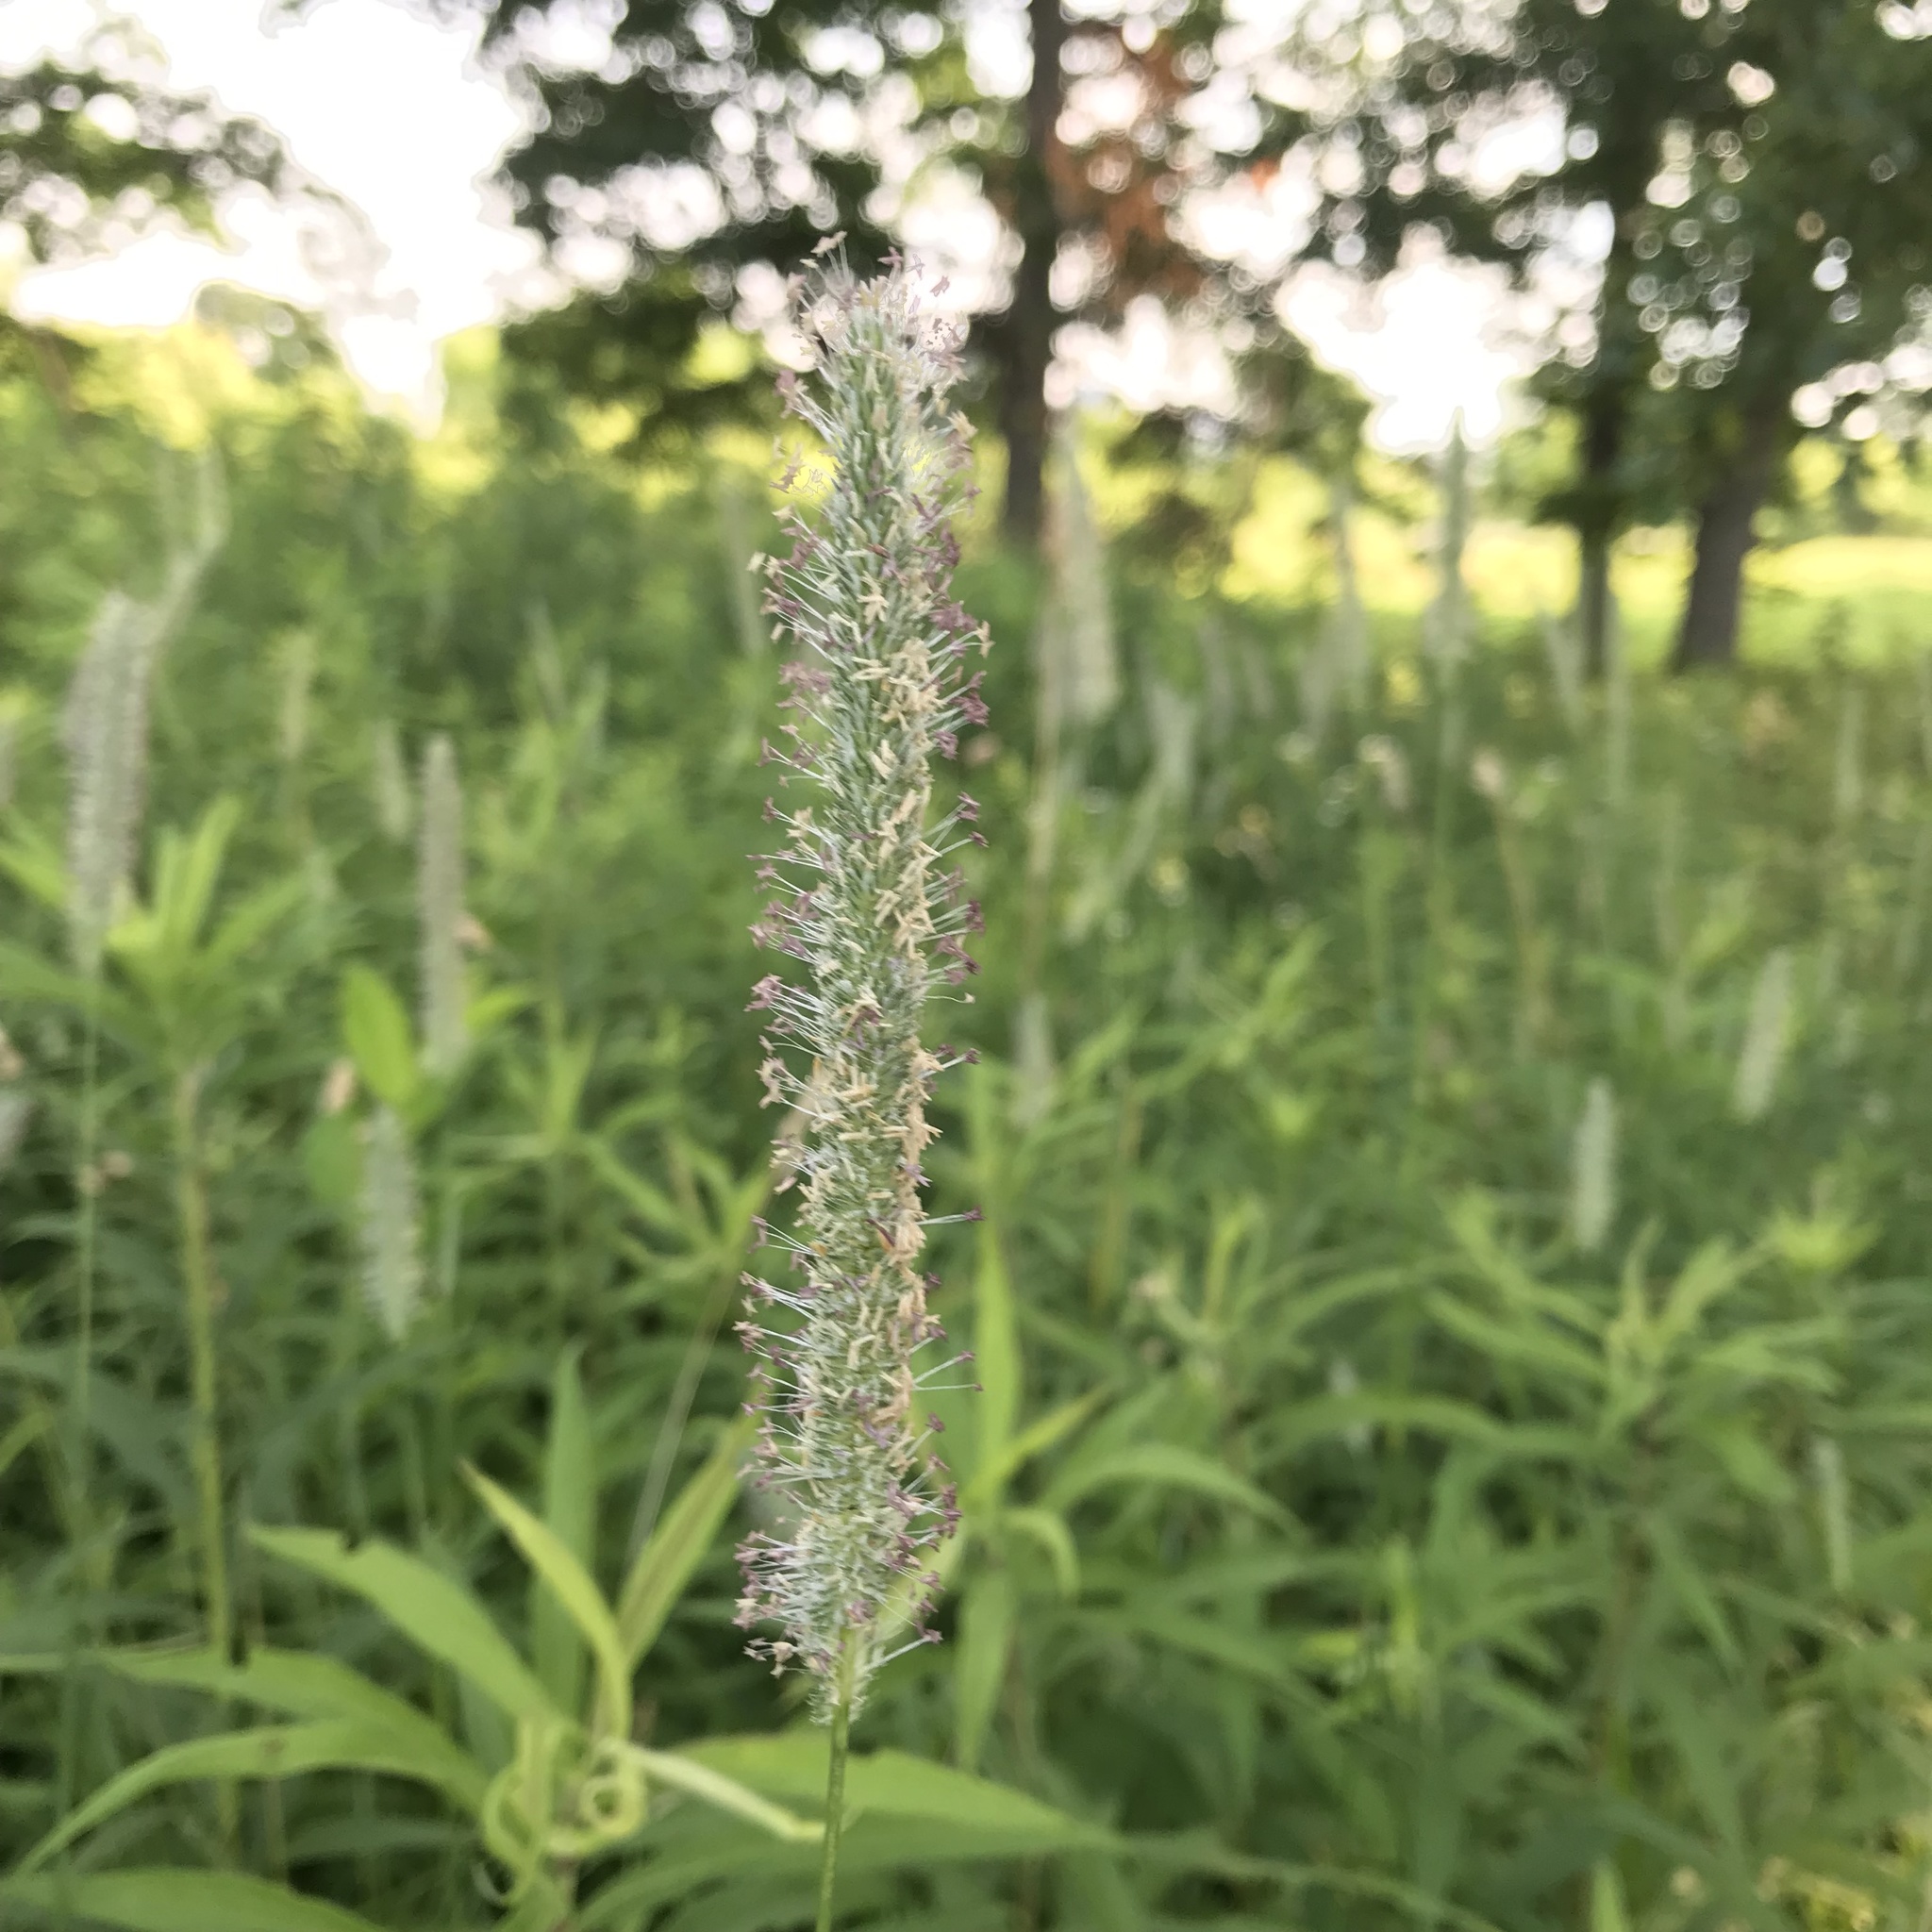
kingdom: Plantae
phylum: Tracheophyta
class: Liliopsida
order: Poales
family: Poaceae
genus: Phleum
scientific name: Phleum pratense
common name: Timothy grass
